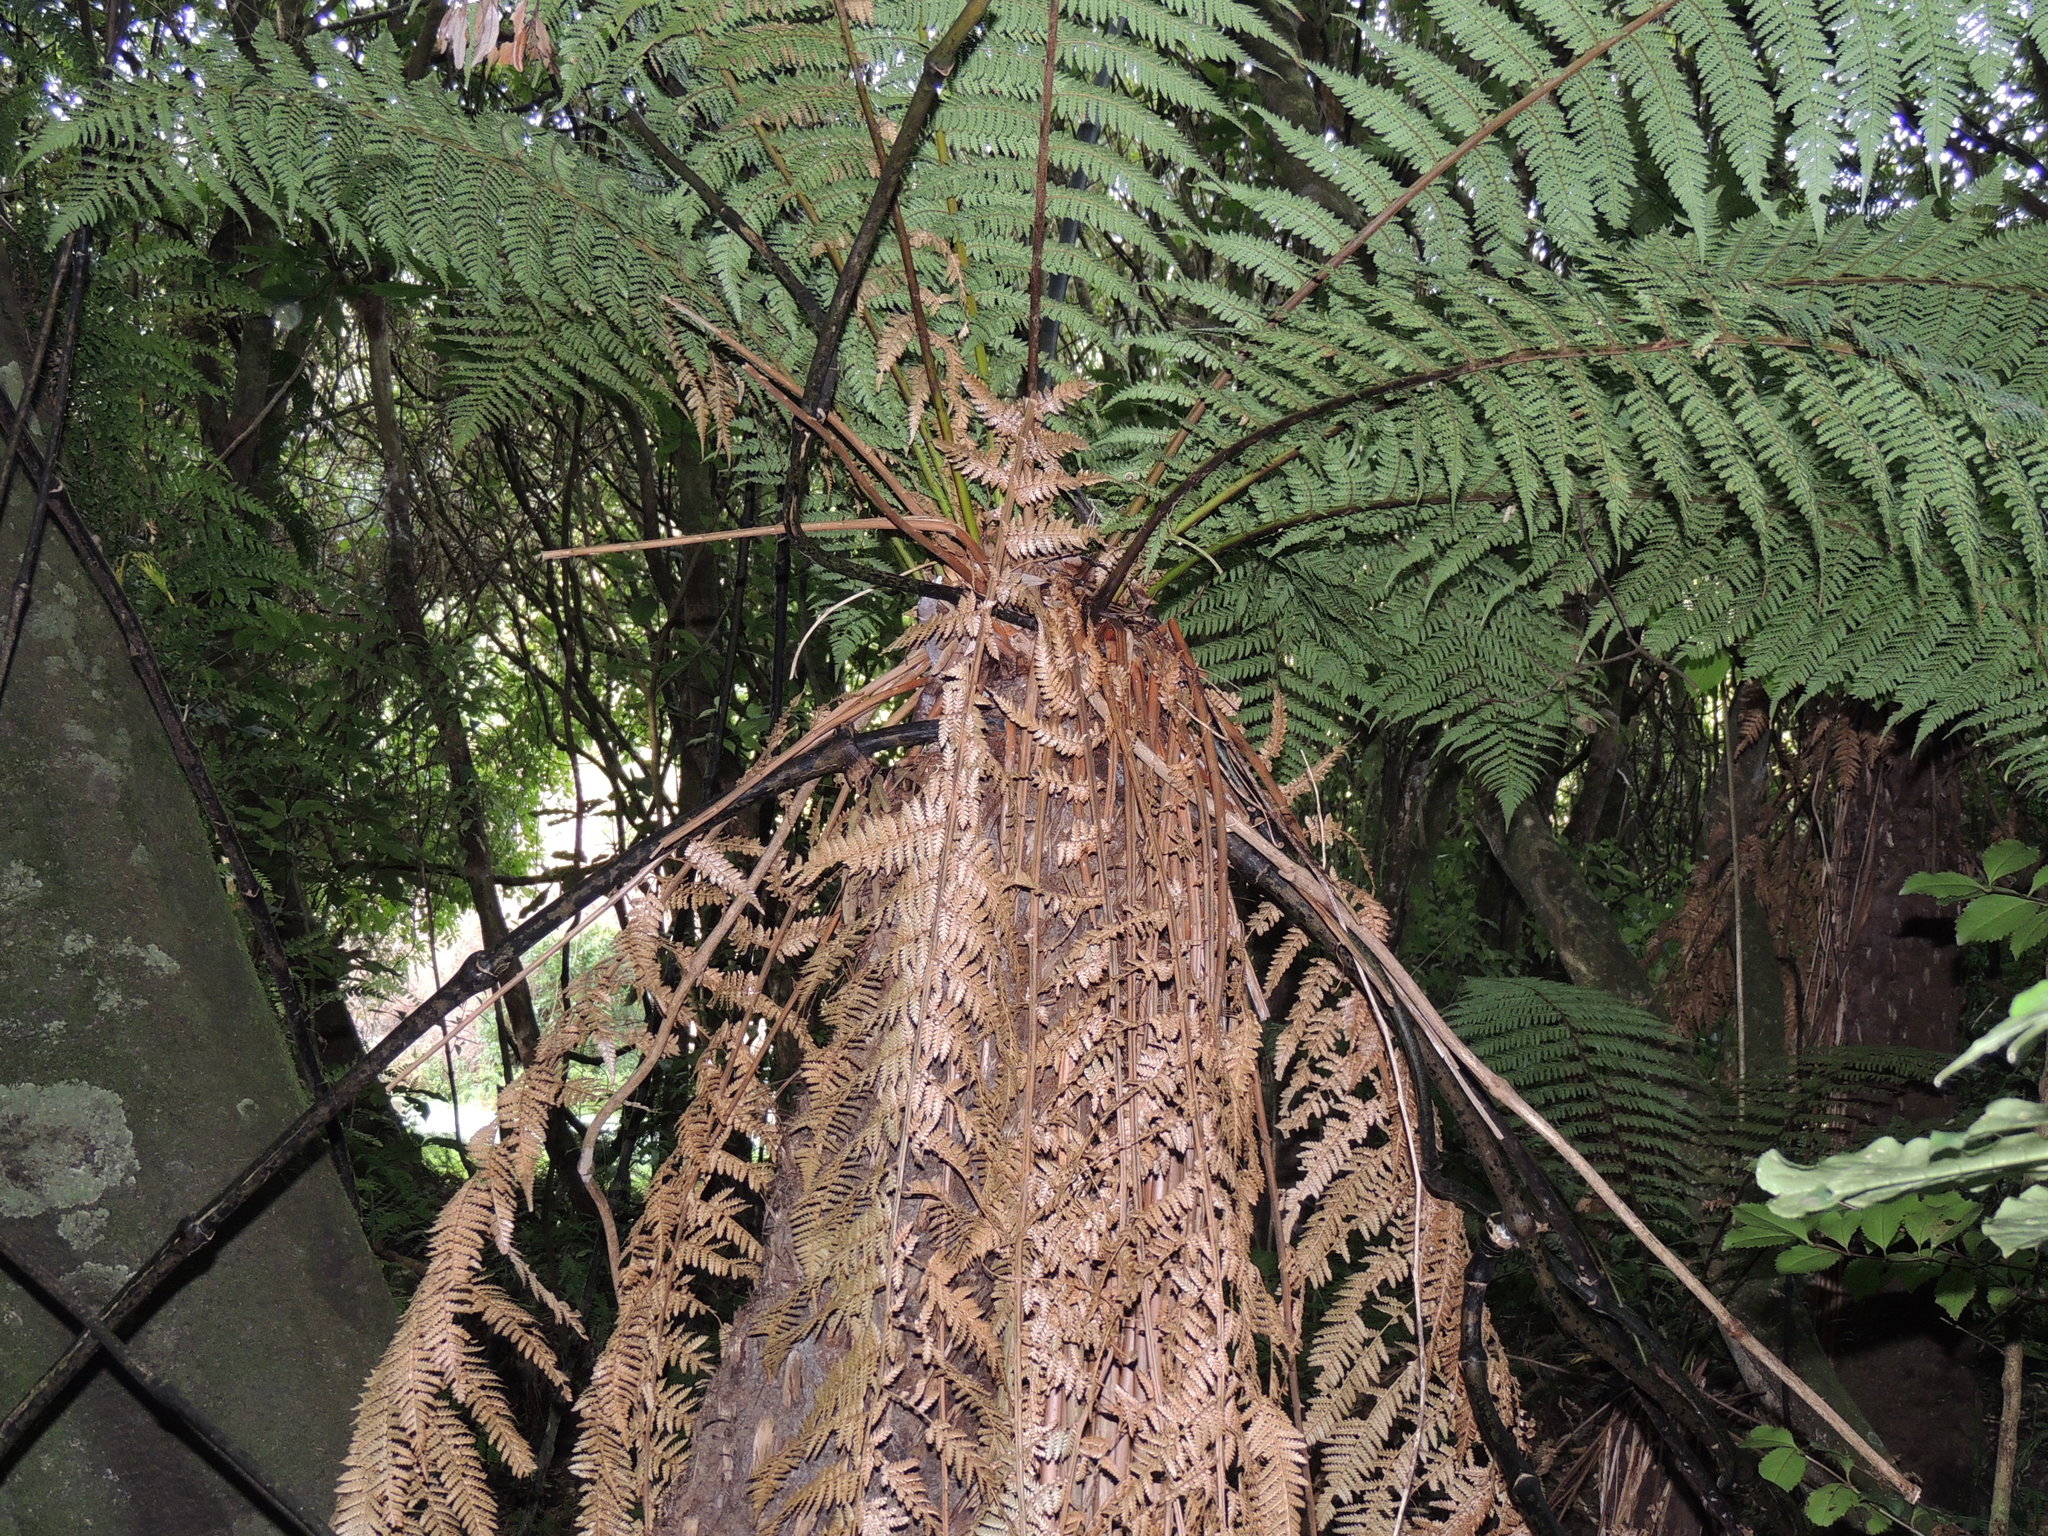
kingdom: Plantae
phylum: Tracheophyta
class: Polypodiopsida
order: Cyatheales
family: Dicksoniaceae
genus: Dicksonia
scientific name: Dicksonia fibrosa
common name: Golden tree fern
